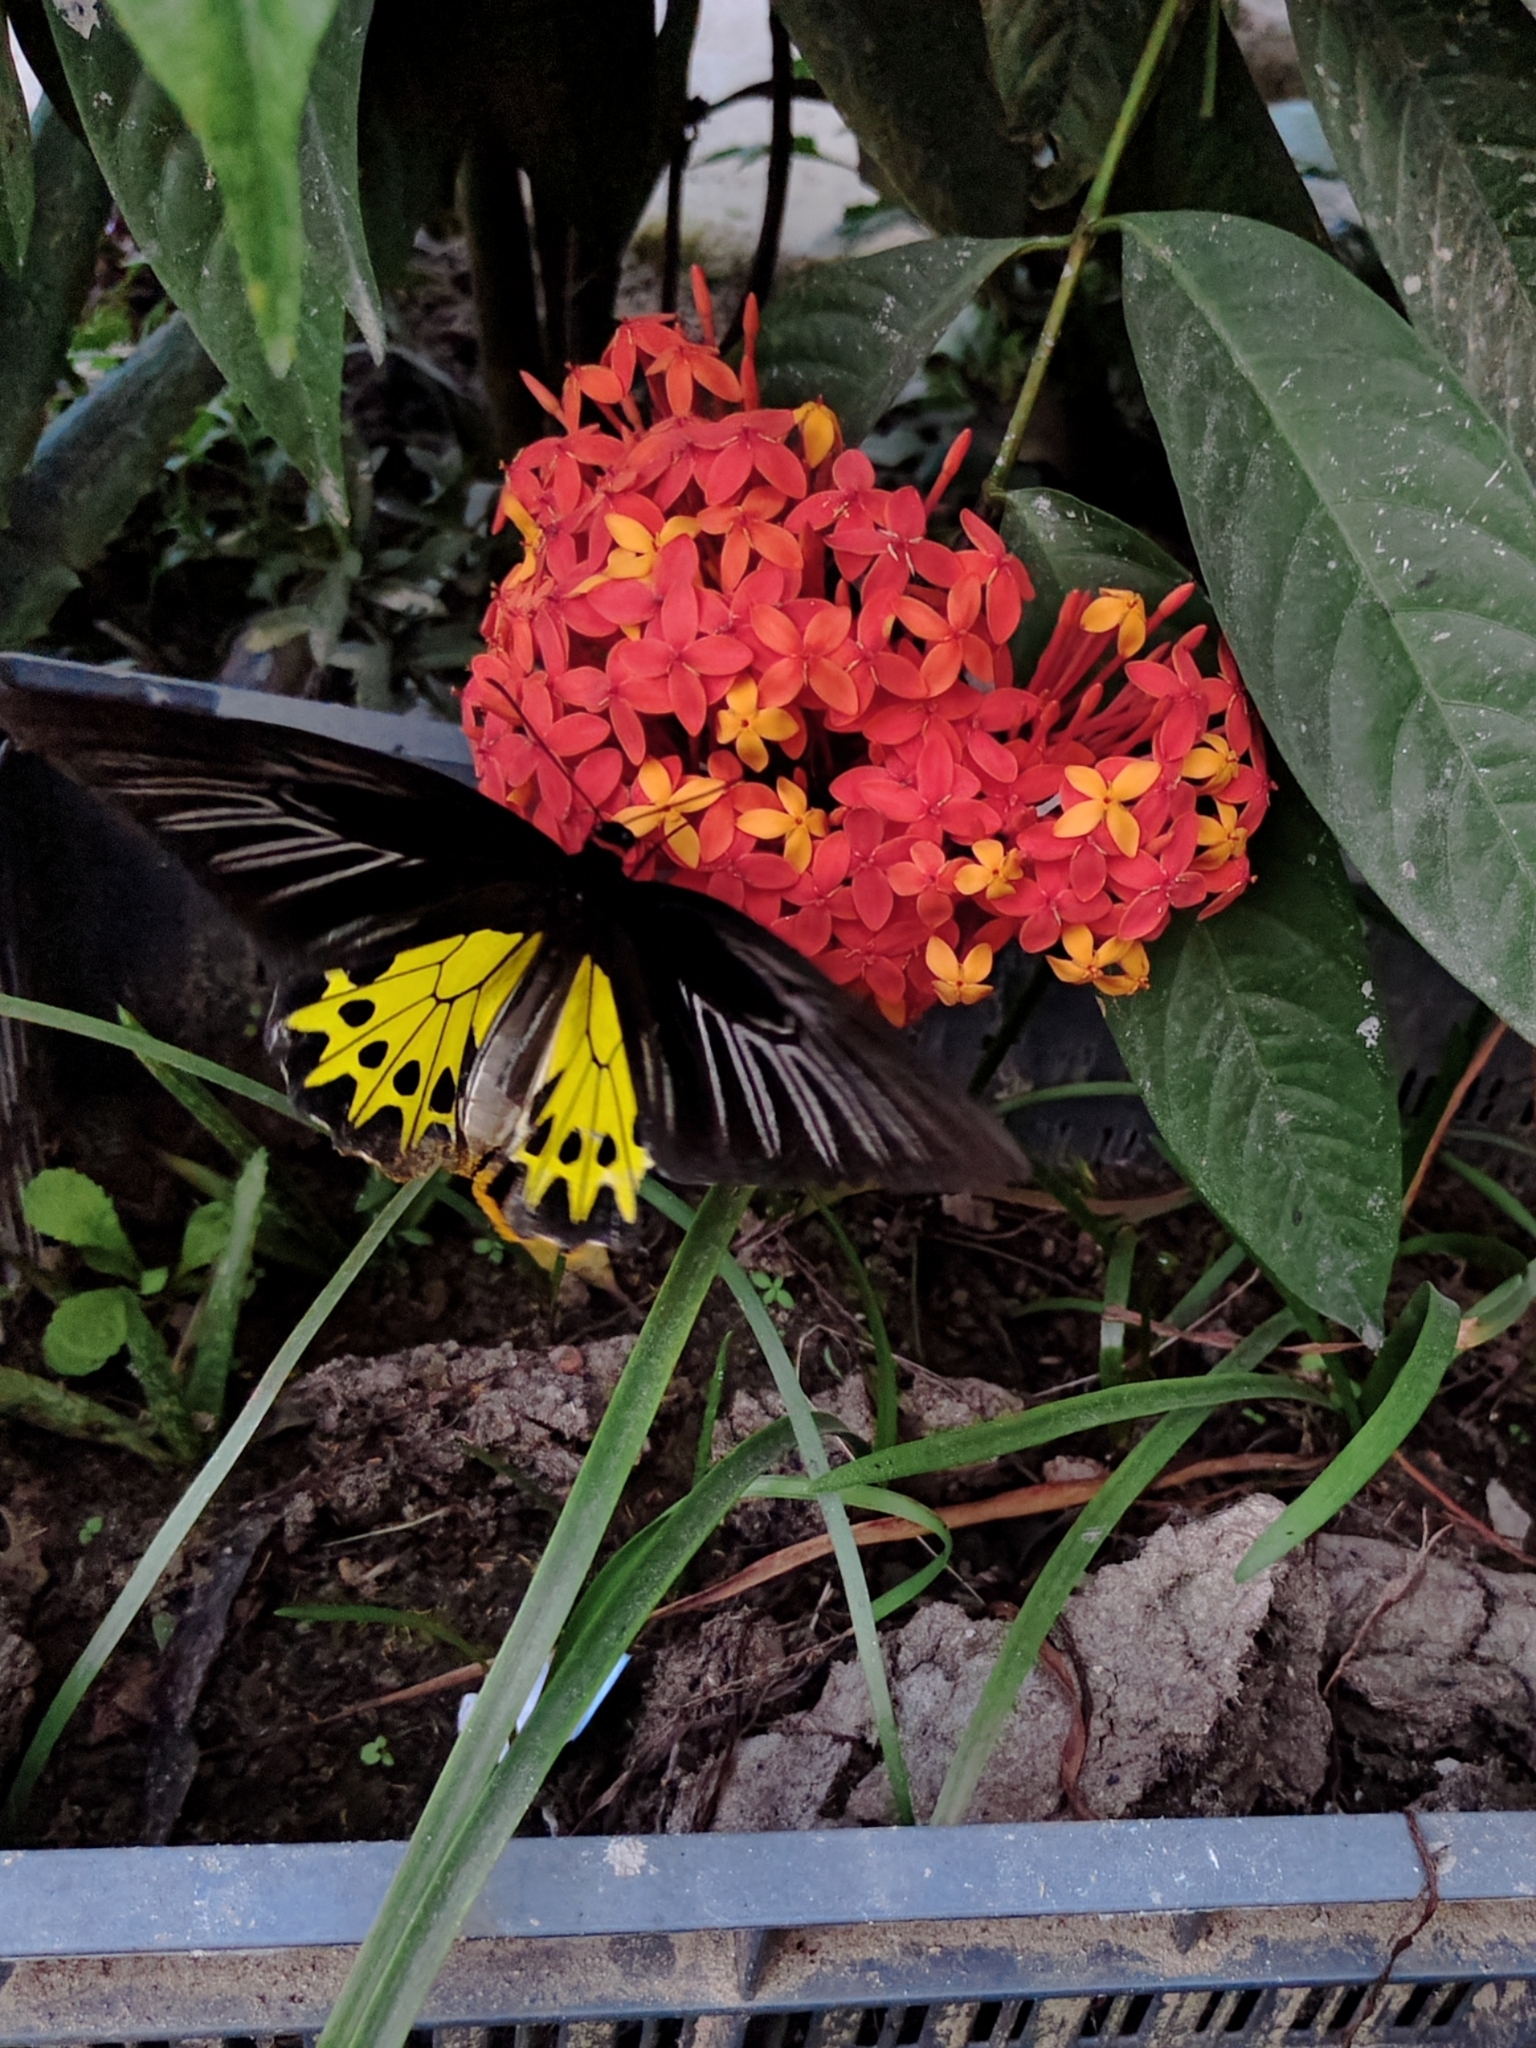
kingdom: Animalia
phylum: Arthropoda
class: Insecta
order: Lepidoptera
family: Papilionidae
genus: Troides
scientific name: Troides helena
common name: Common birdwing
